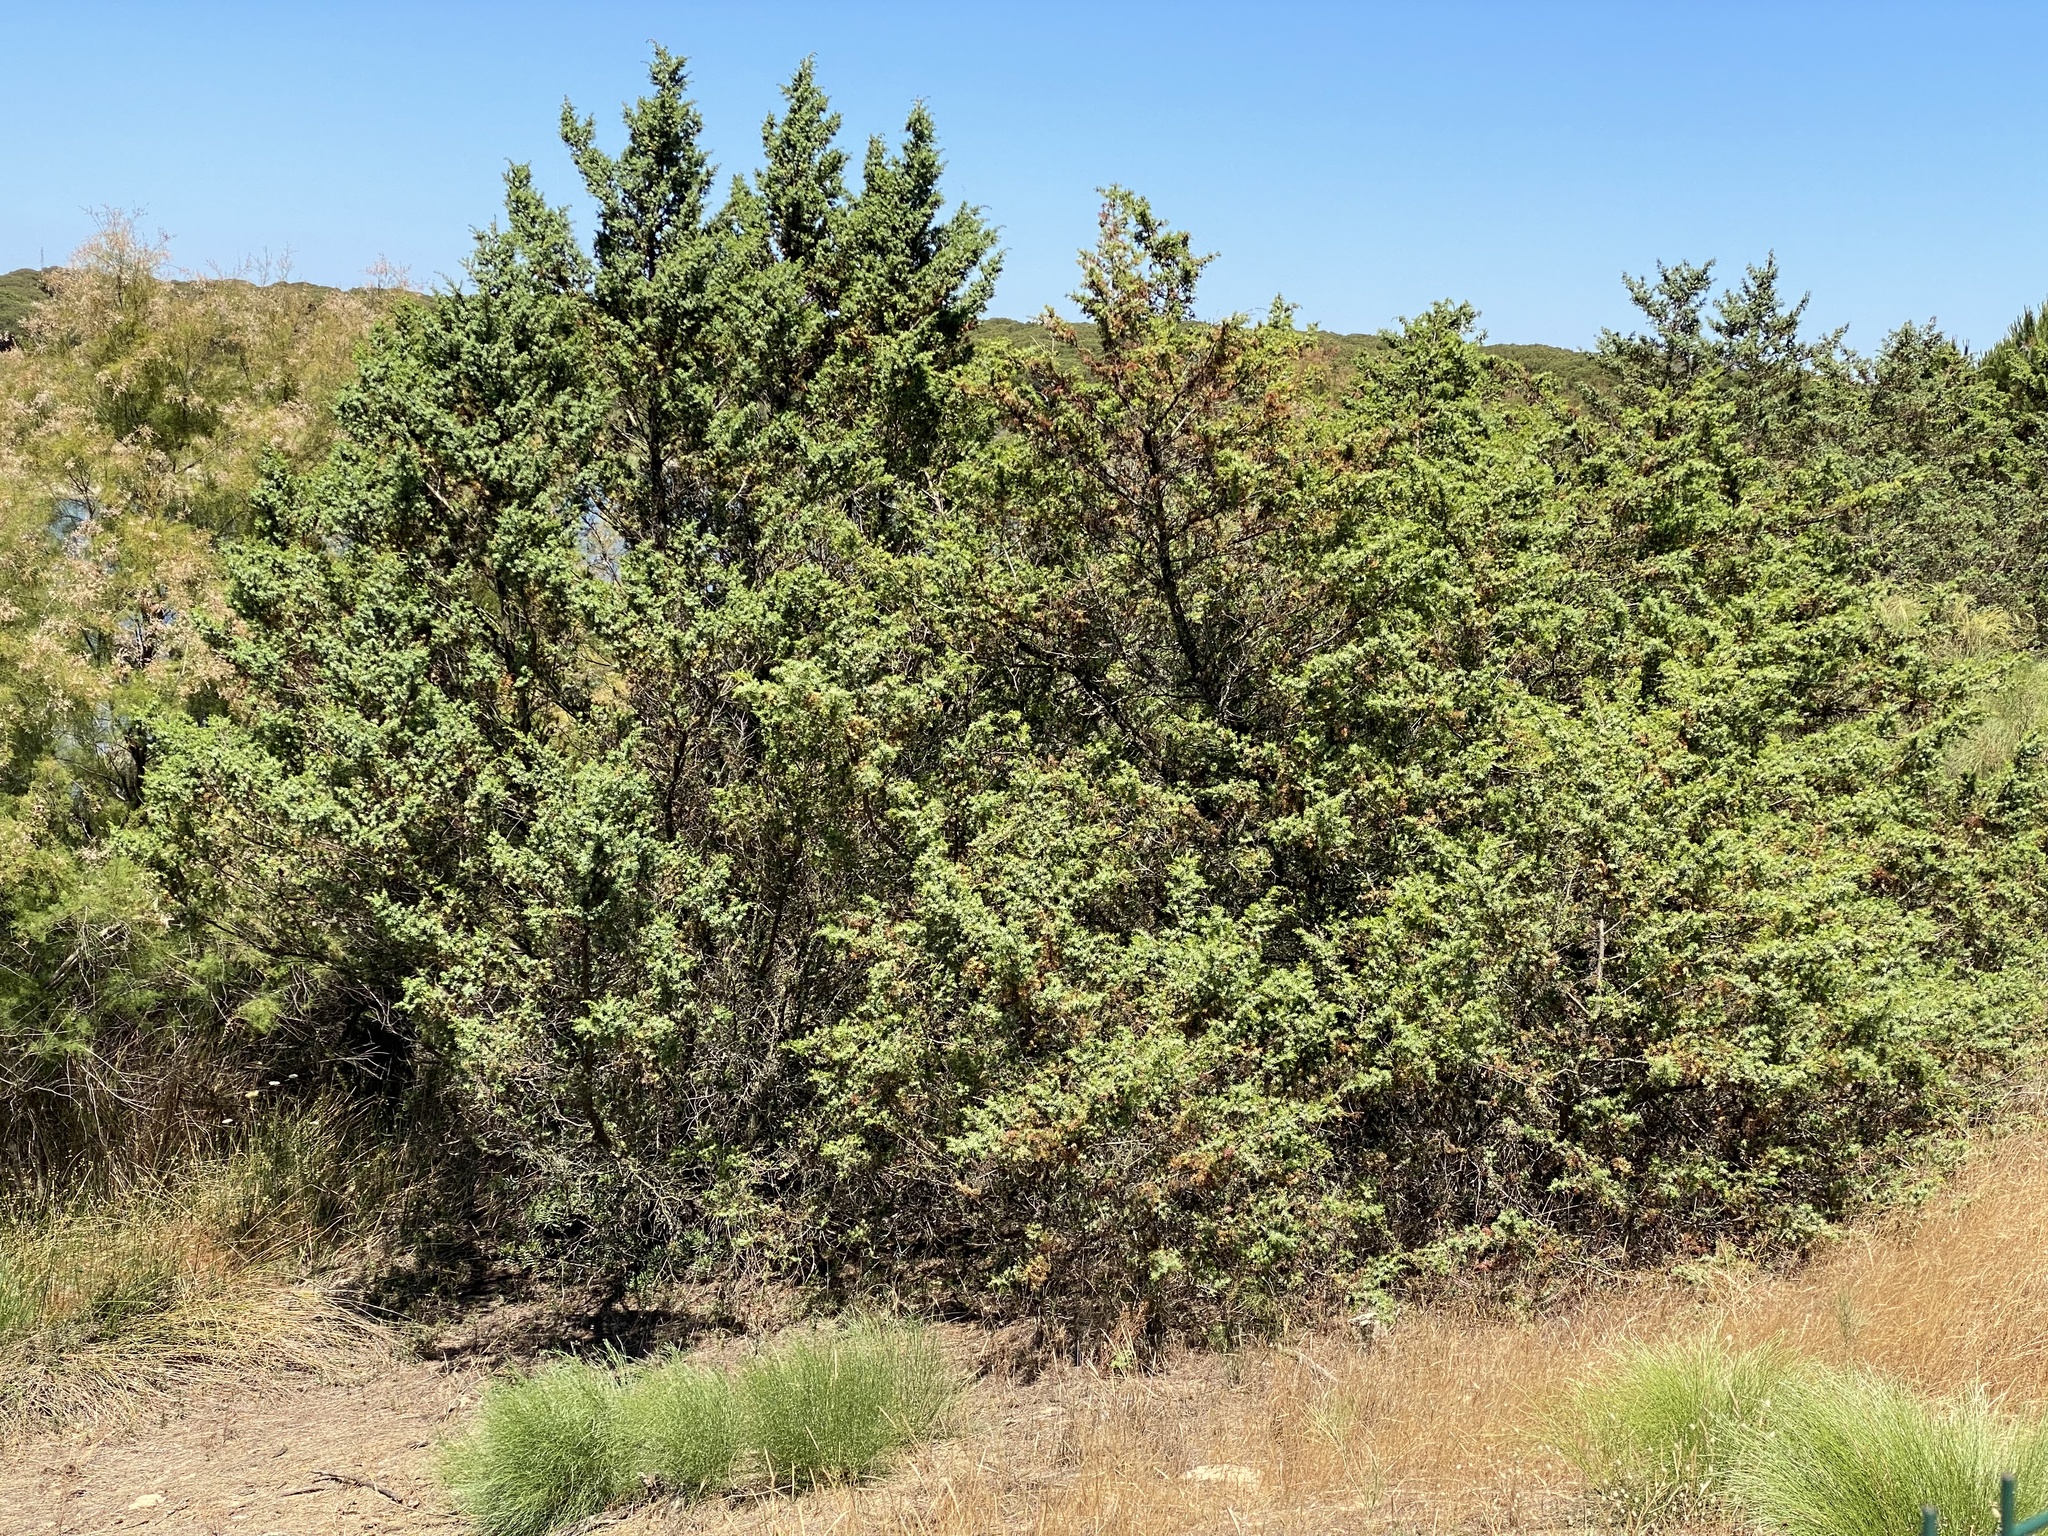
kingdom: Plantae
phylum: Tracheophyta
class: Pinopsida
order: Pinales
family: Cupressaceae
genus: Juniperus
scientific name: Juniperus oxycedrus
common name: Prickly juniper
